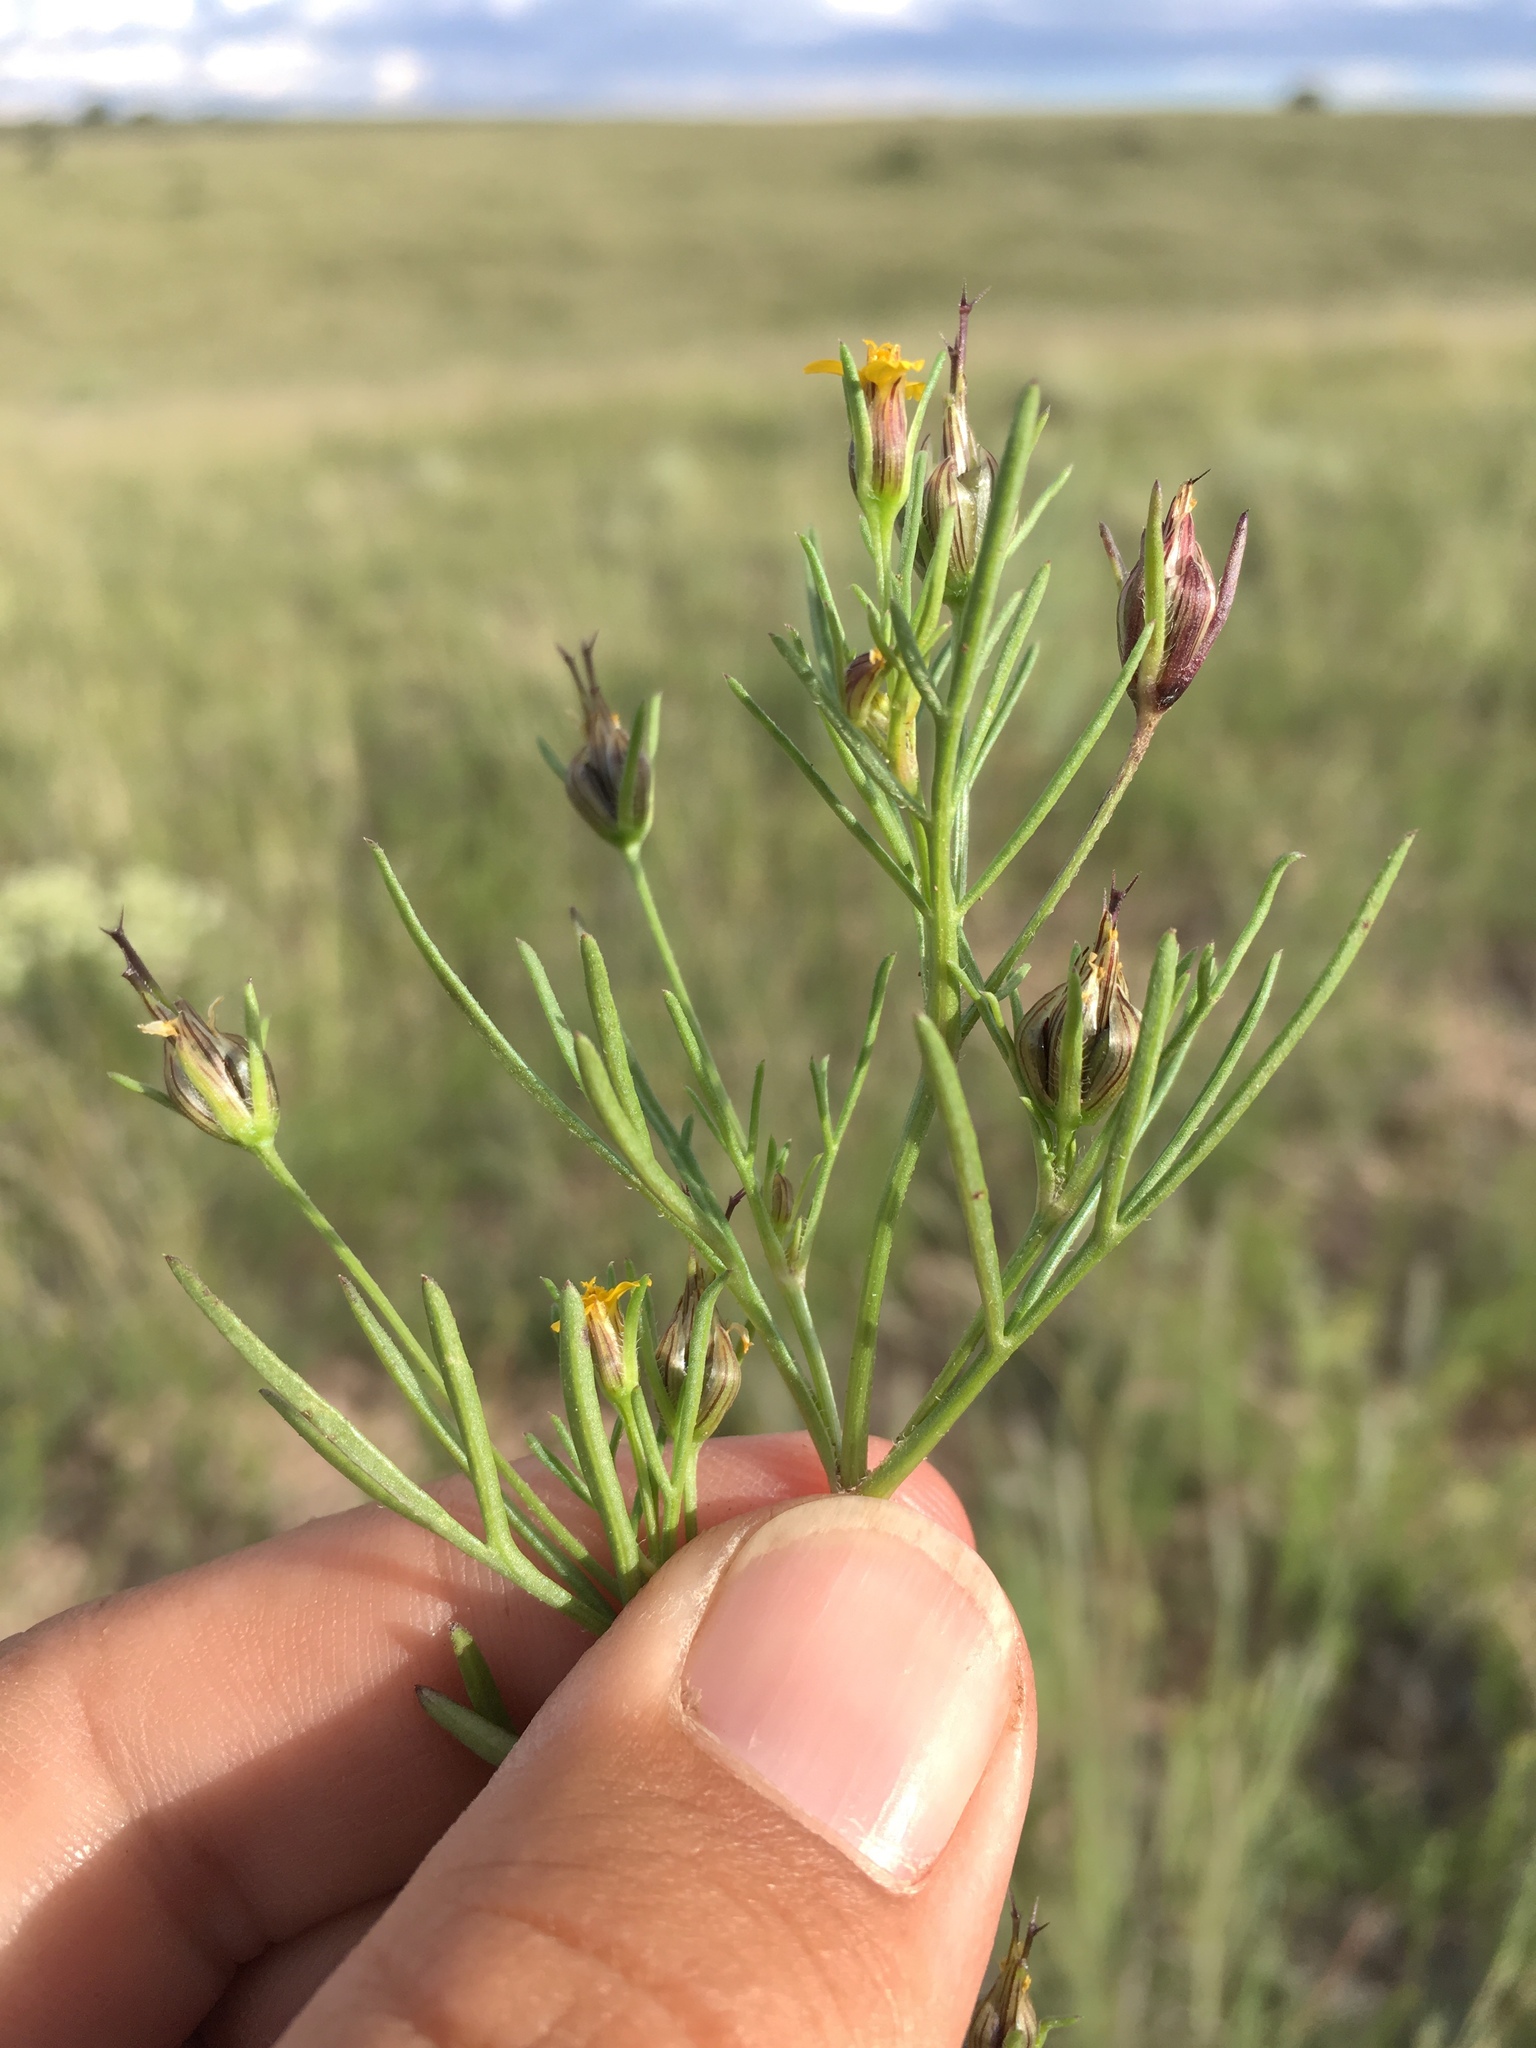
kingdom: Plantae
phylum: Tracheophyta
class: Magnoliopsida
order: Asterales
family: Asteraceae
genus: Heterosperma
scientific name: Heterosperma pinnatum
